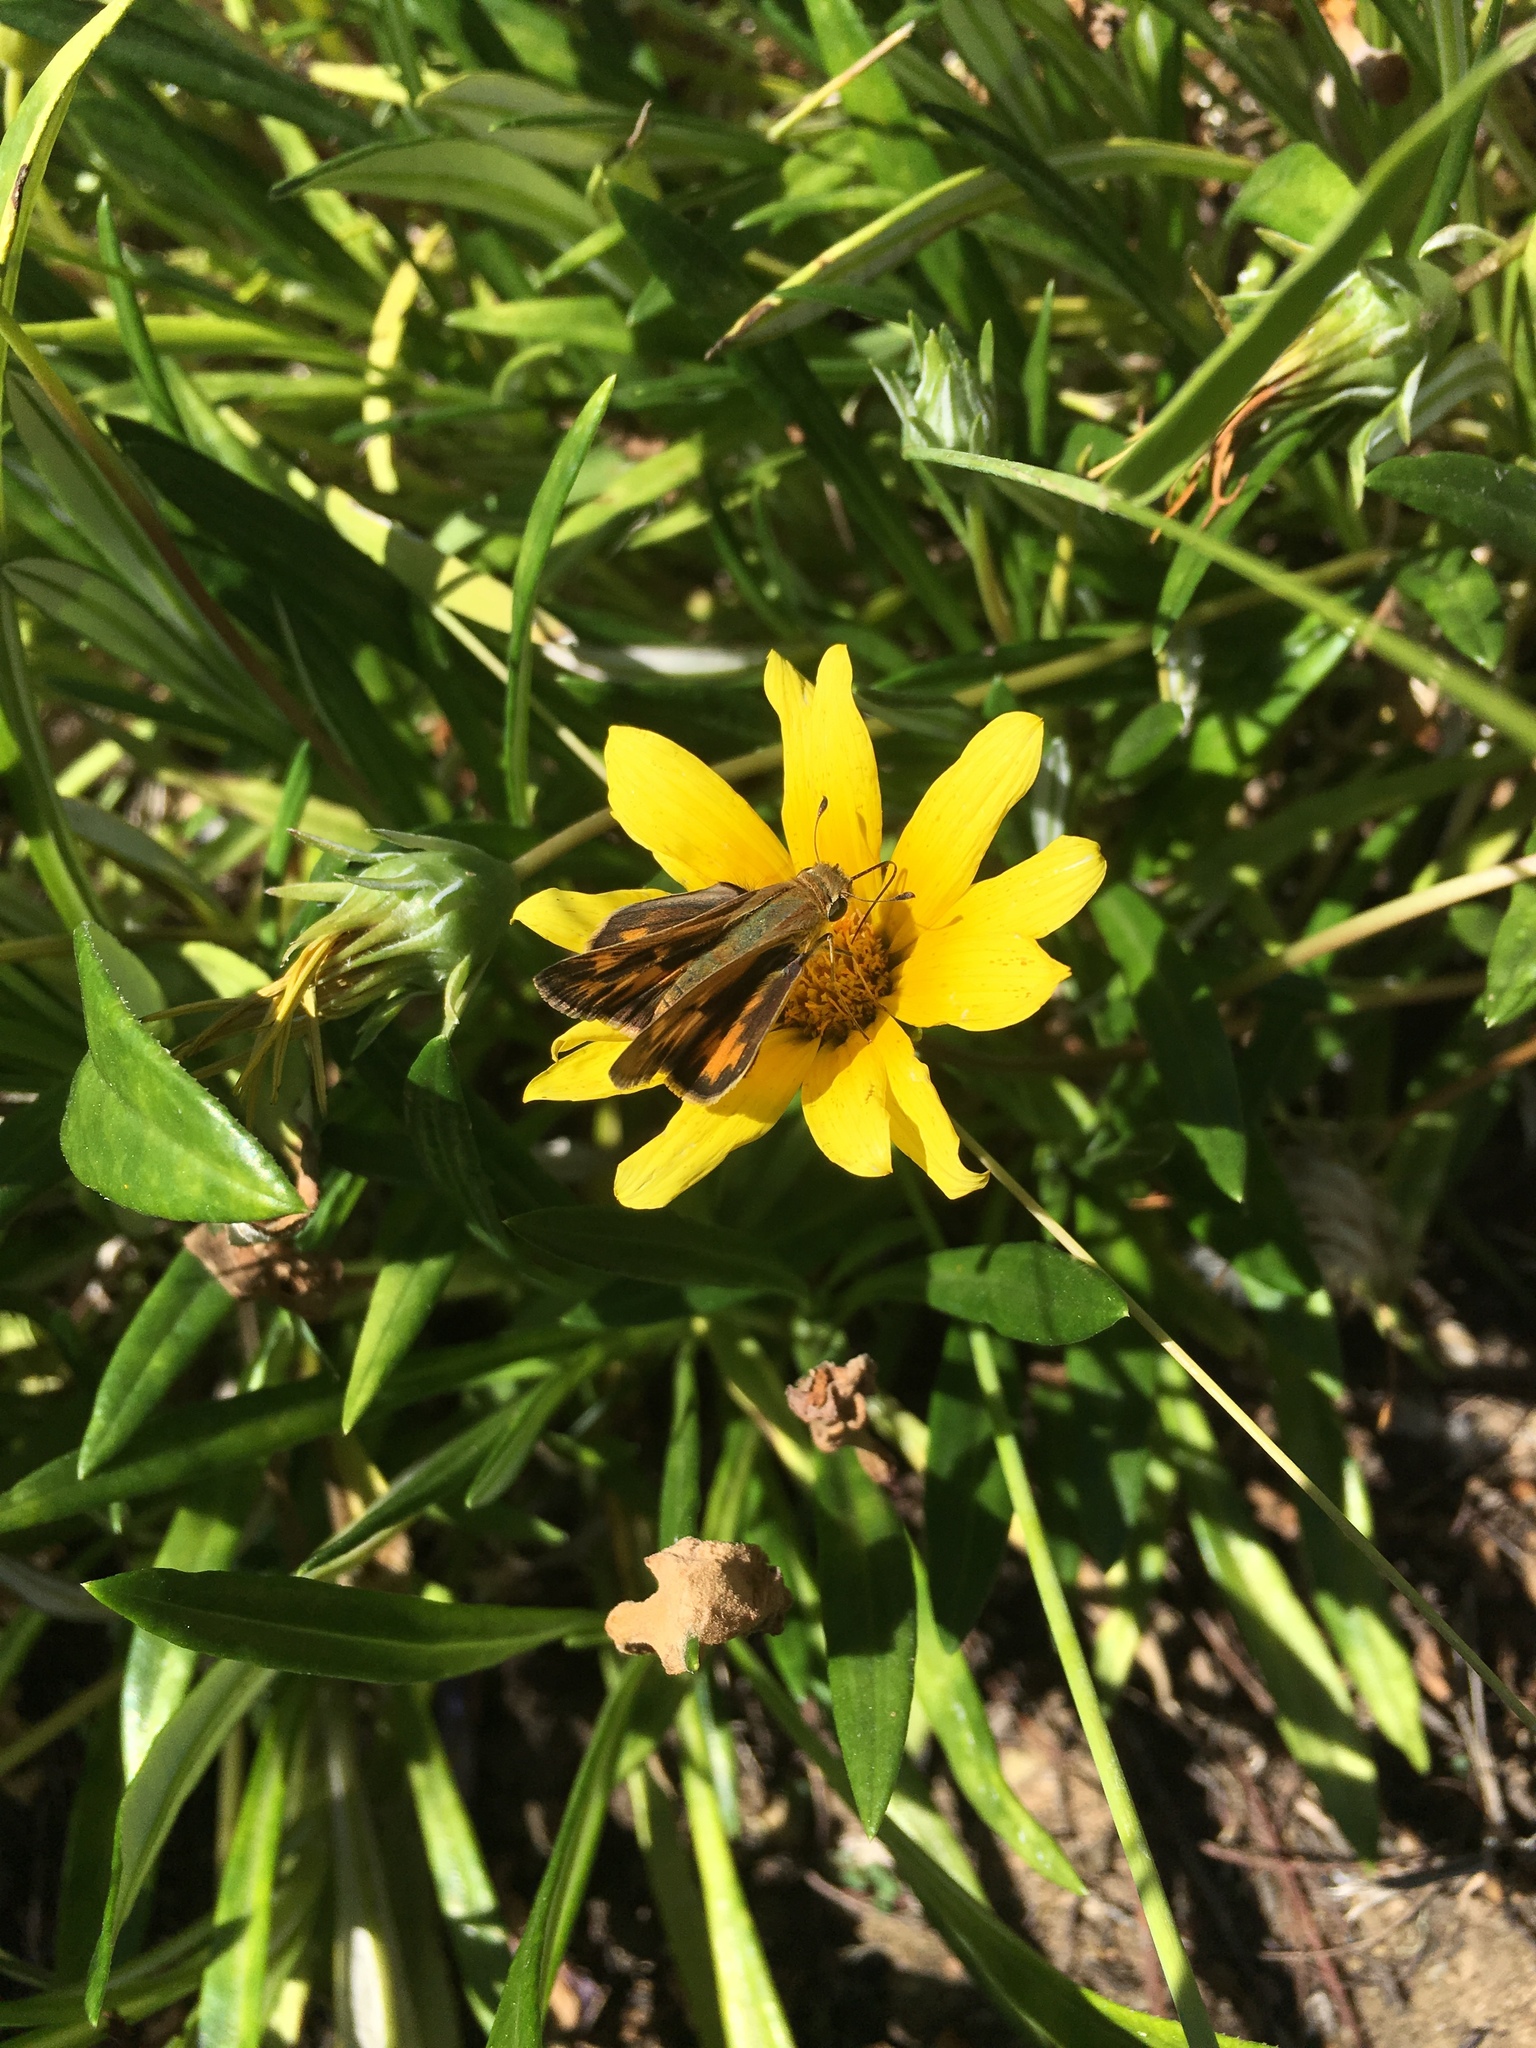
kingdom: Animalia
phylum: Arthropoda
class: Insecta
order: Lepidoptera
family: Hesperiidae
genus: Hylephila
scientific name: Hylephila phyleus
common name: Fiery skipper
